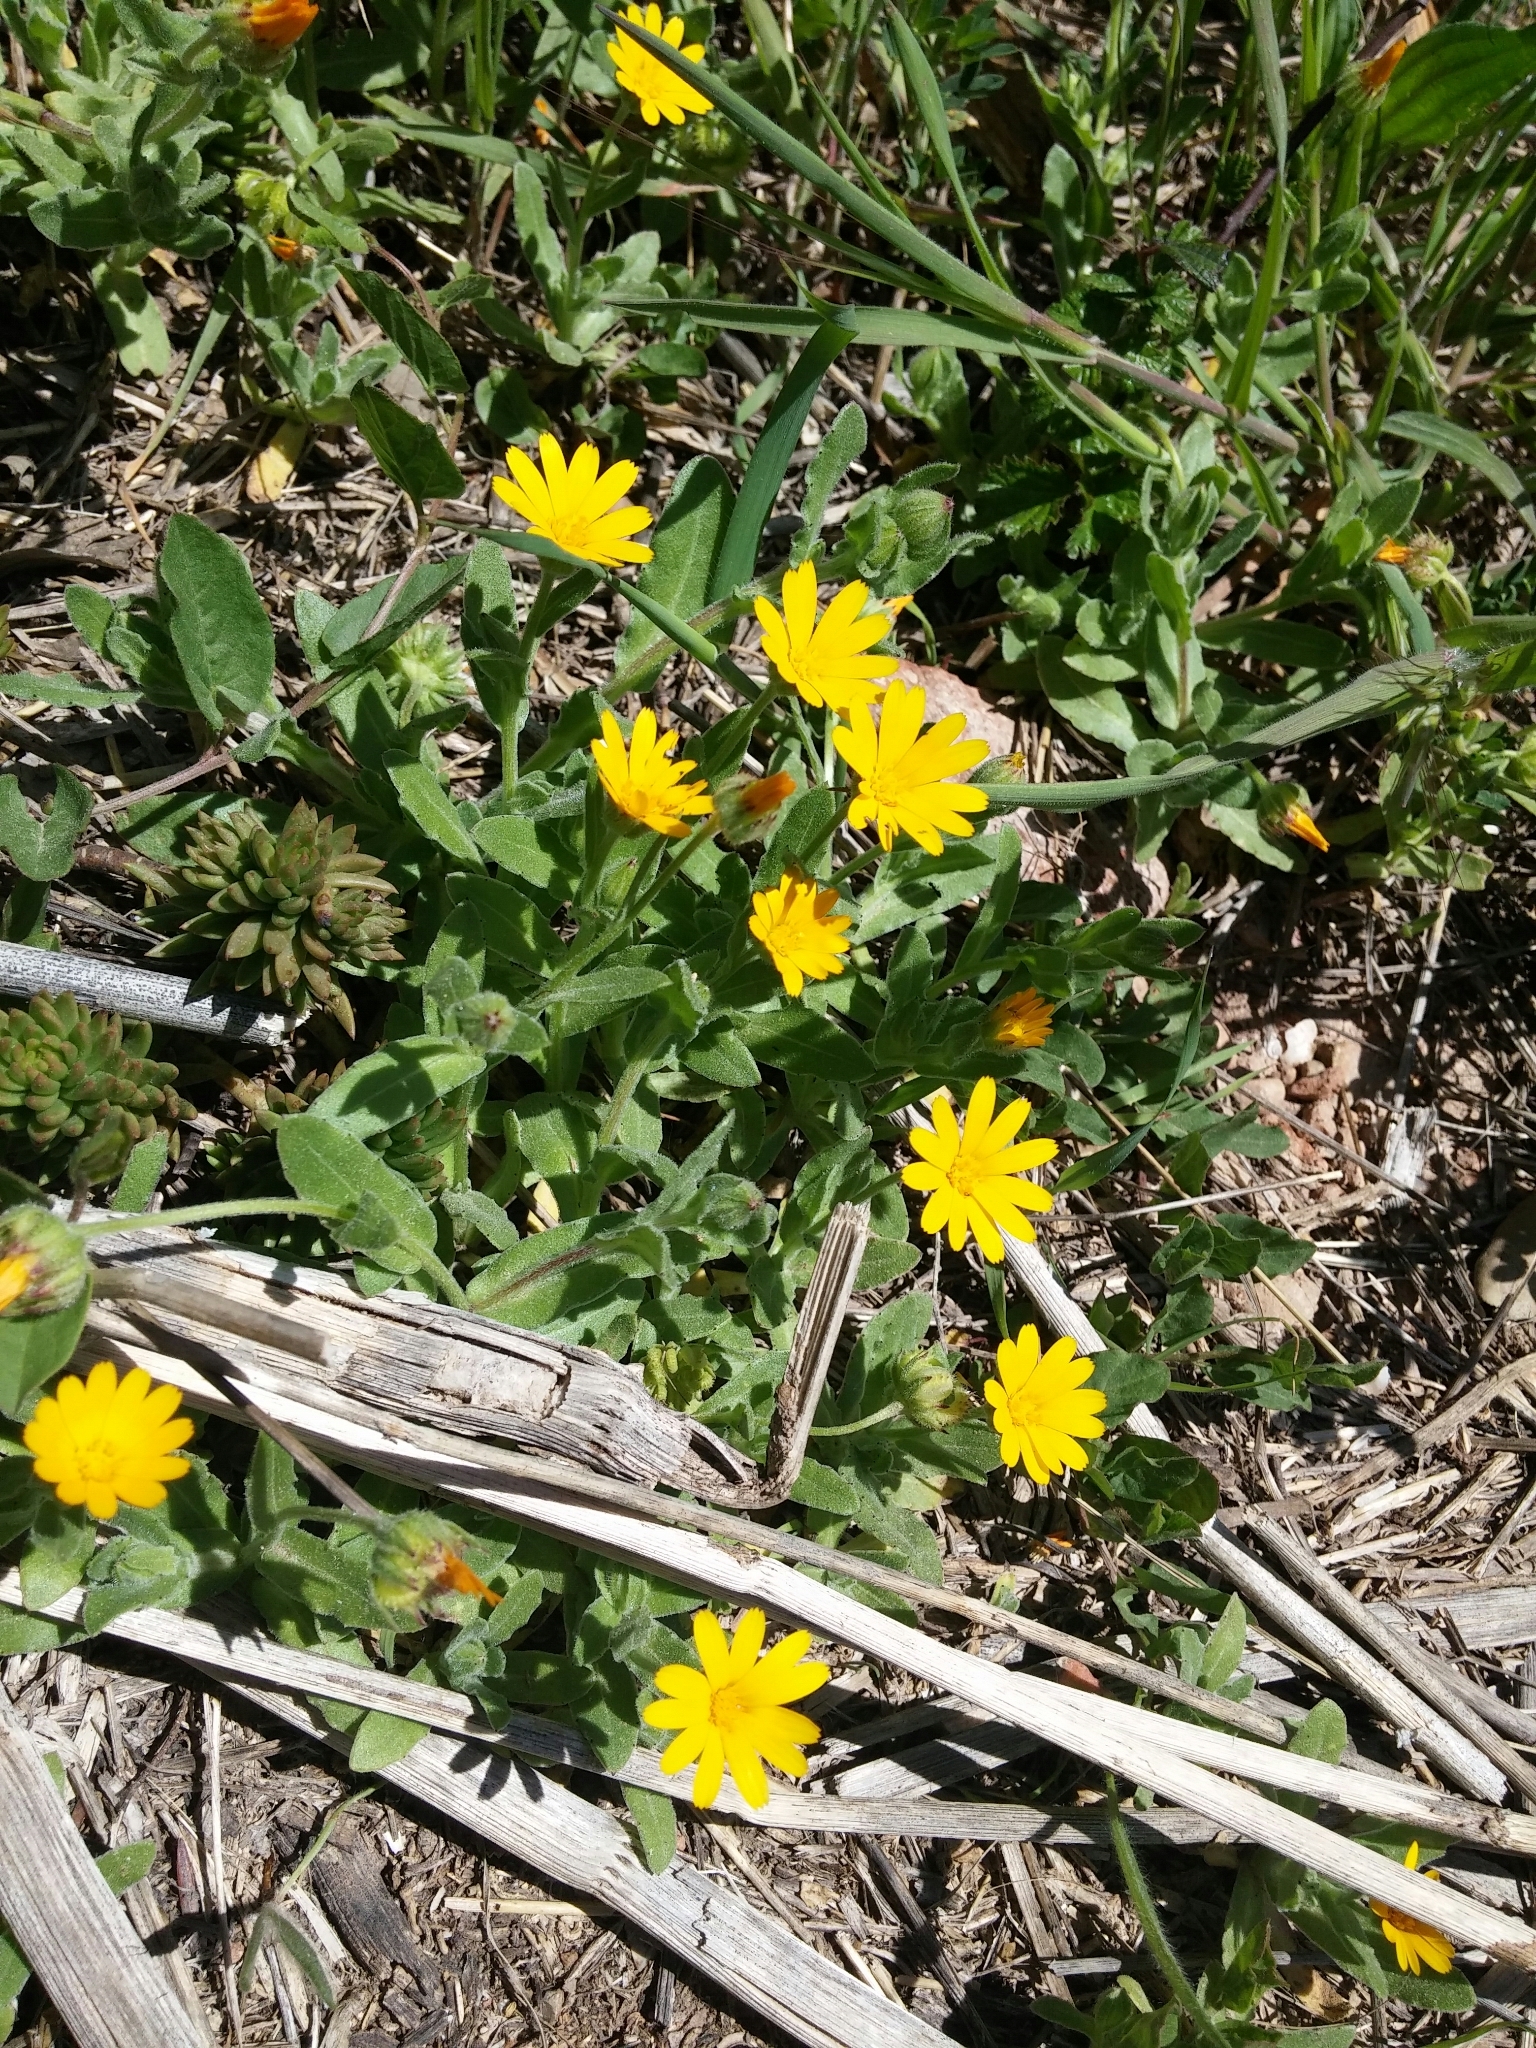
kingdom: Plantae
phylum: Tracheophyta
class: Magnoliopsida
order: Asterales
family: Asteraceae
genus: Calendula
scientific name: Calendula arvensis
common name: Field marigold
